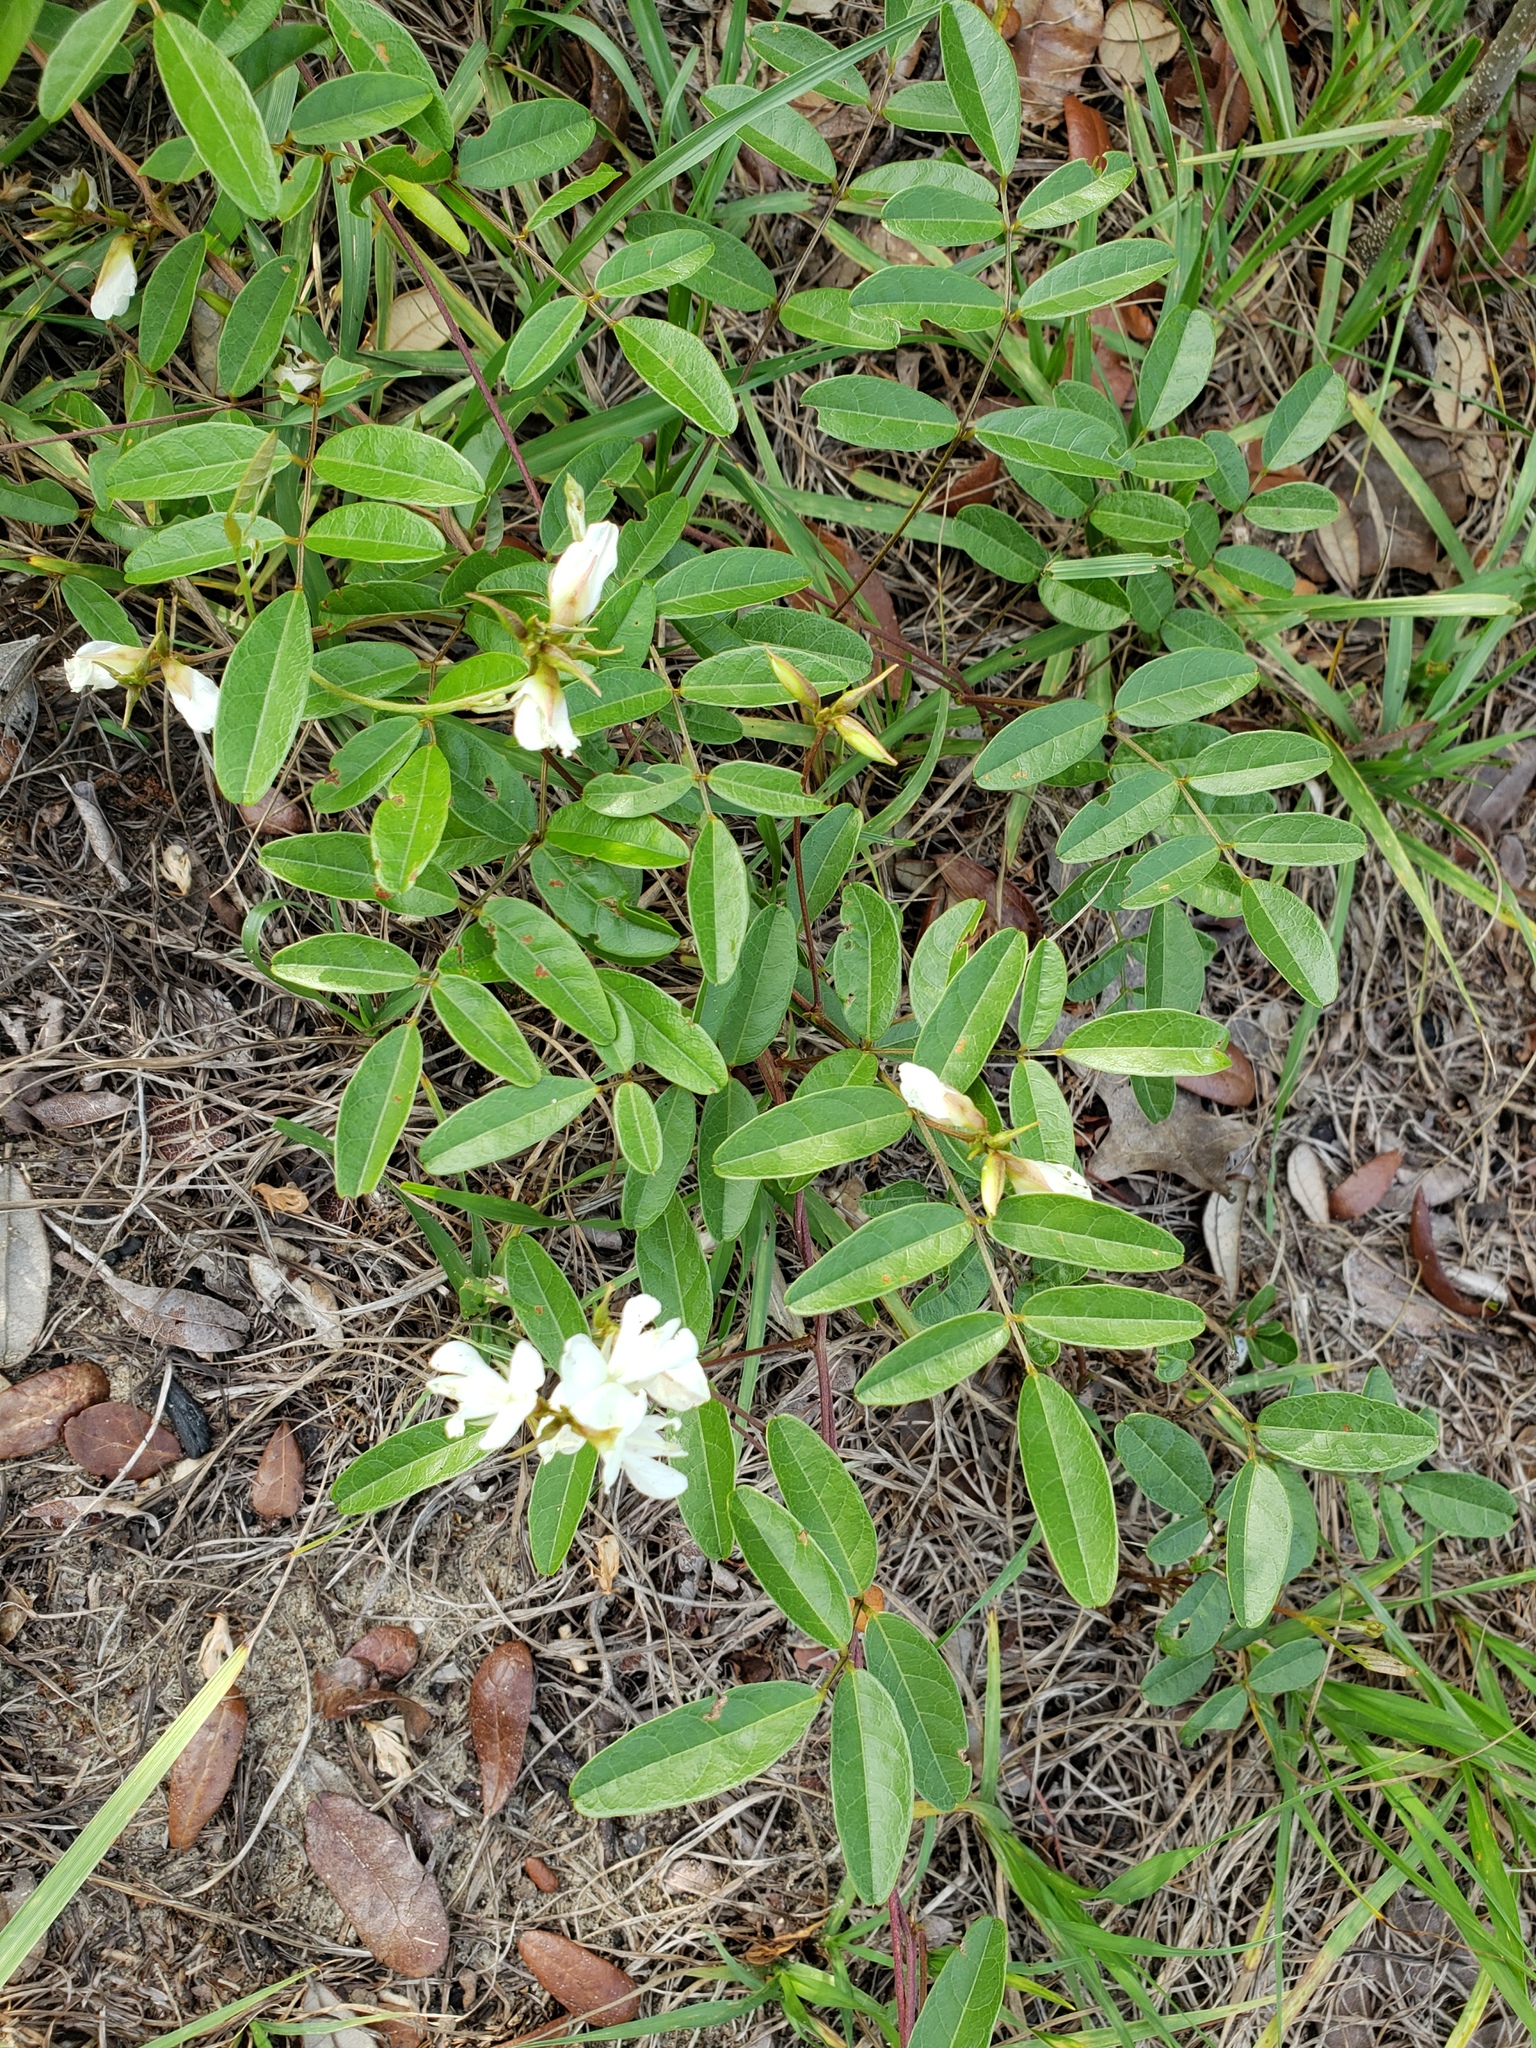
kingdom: Plantae
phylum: Tracheophyta
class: Magnoliopsida
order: Fabales
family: Fabaceae
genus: Galactia
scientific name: Galactia elliottii
